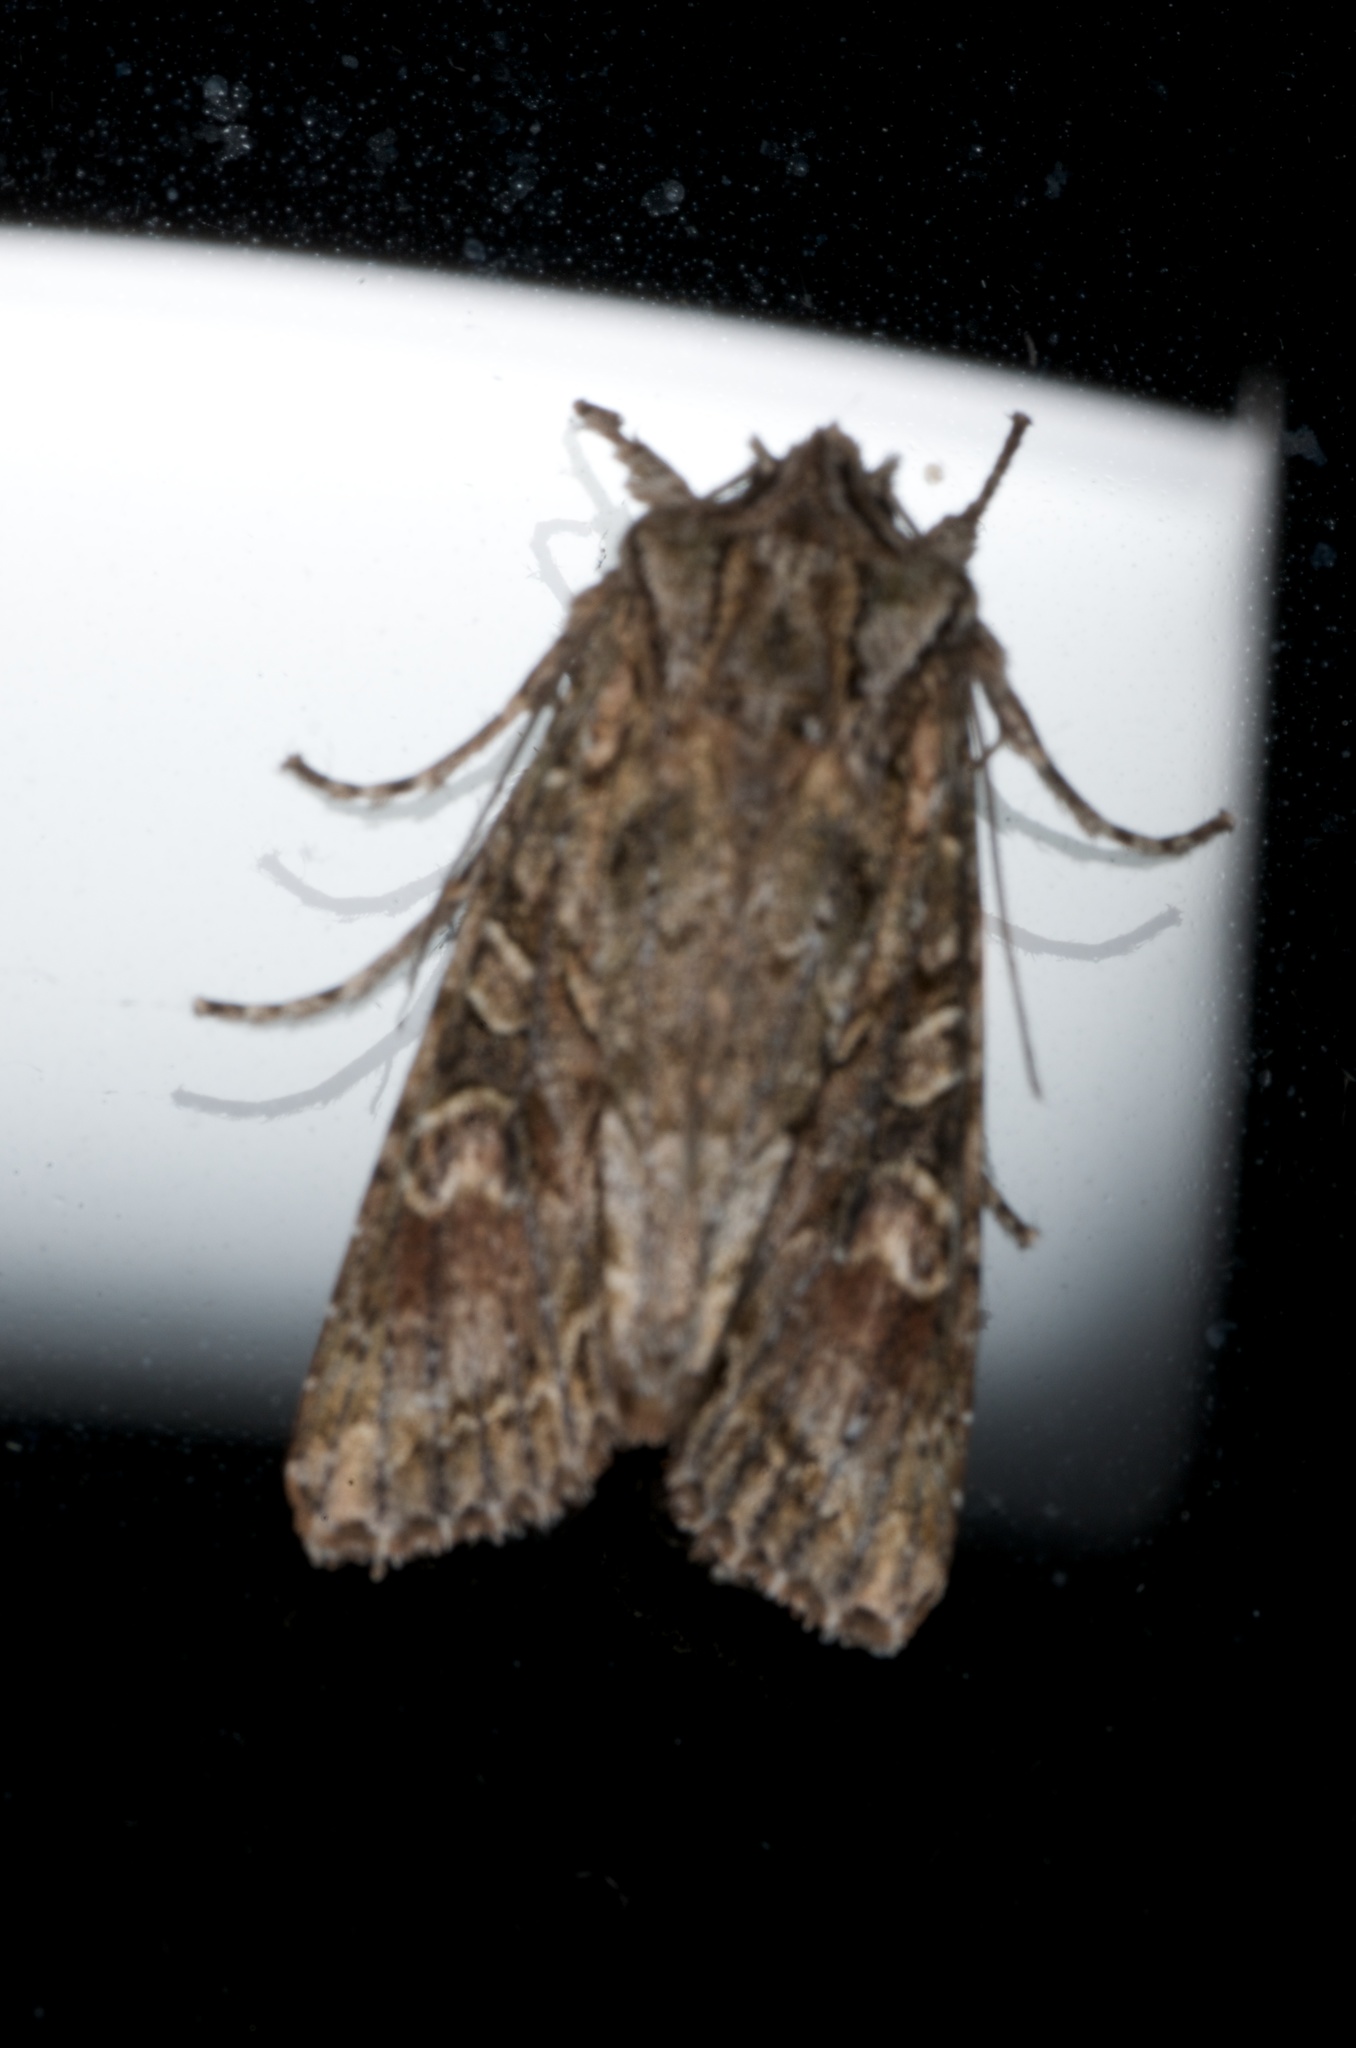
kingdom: Animalia
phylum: Arthropoda
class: Insecta
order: Lepidoptera
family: Noctuidae
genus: Ichneutica
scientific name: Ichneutica mutans
